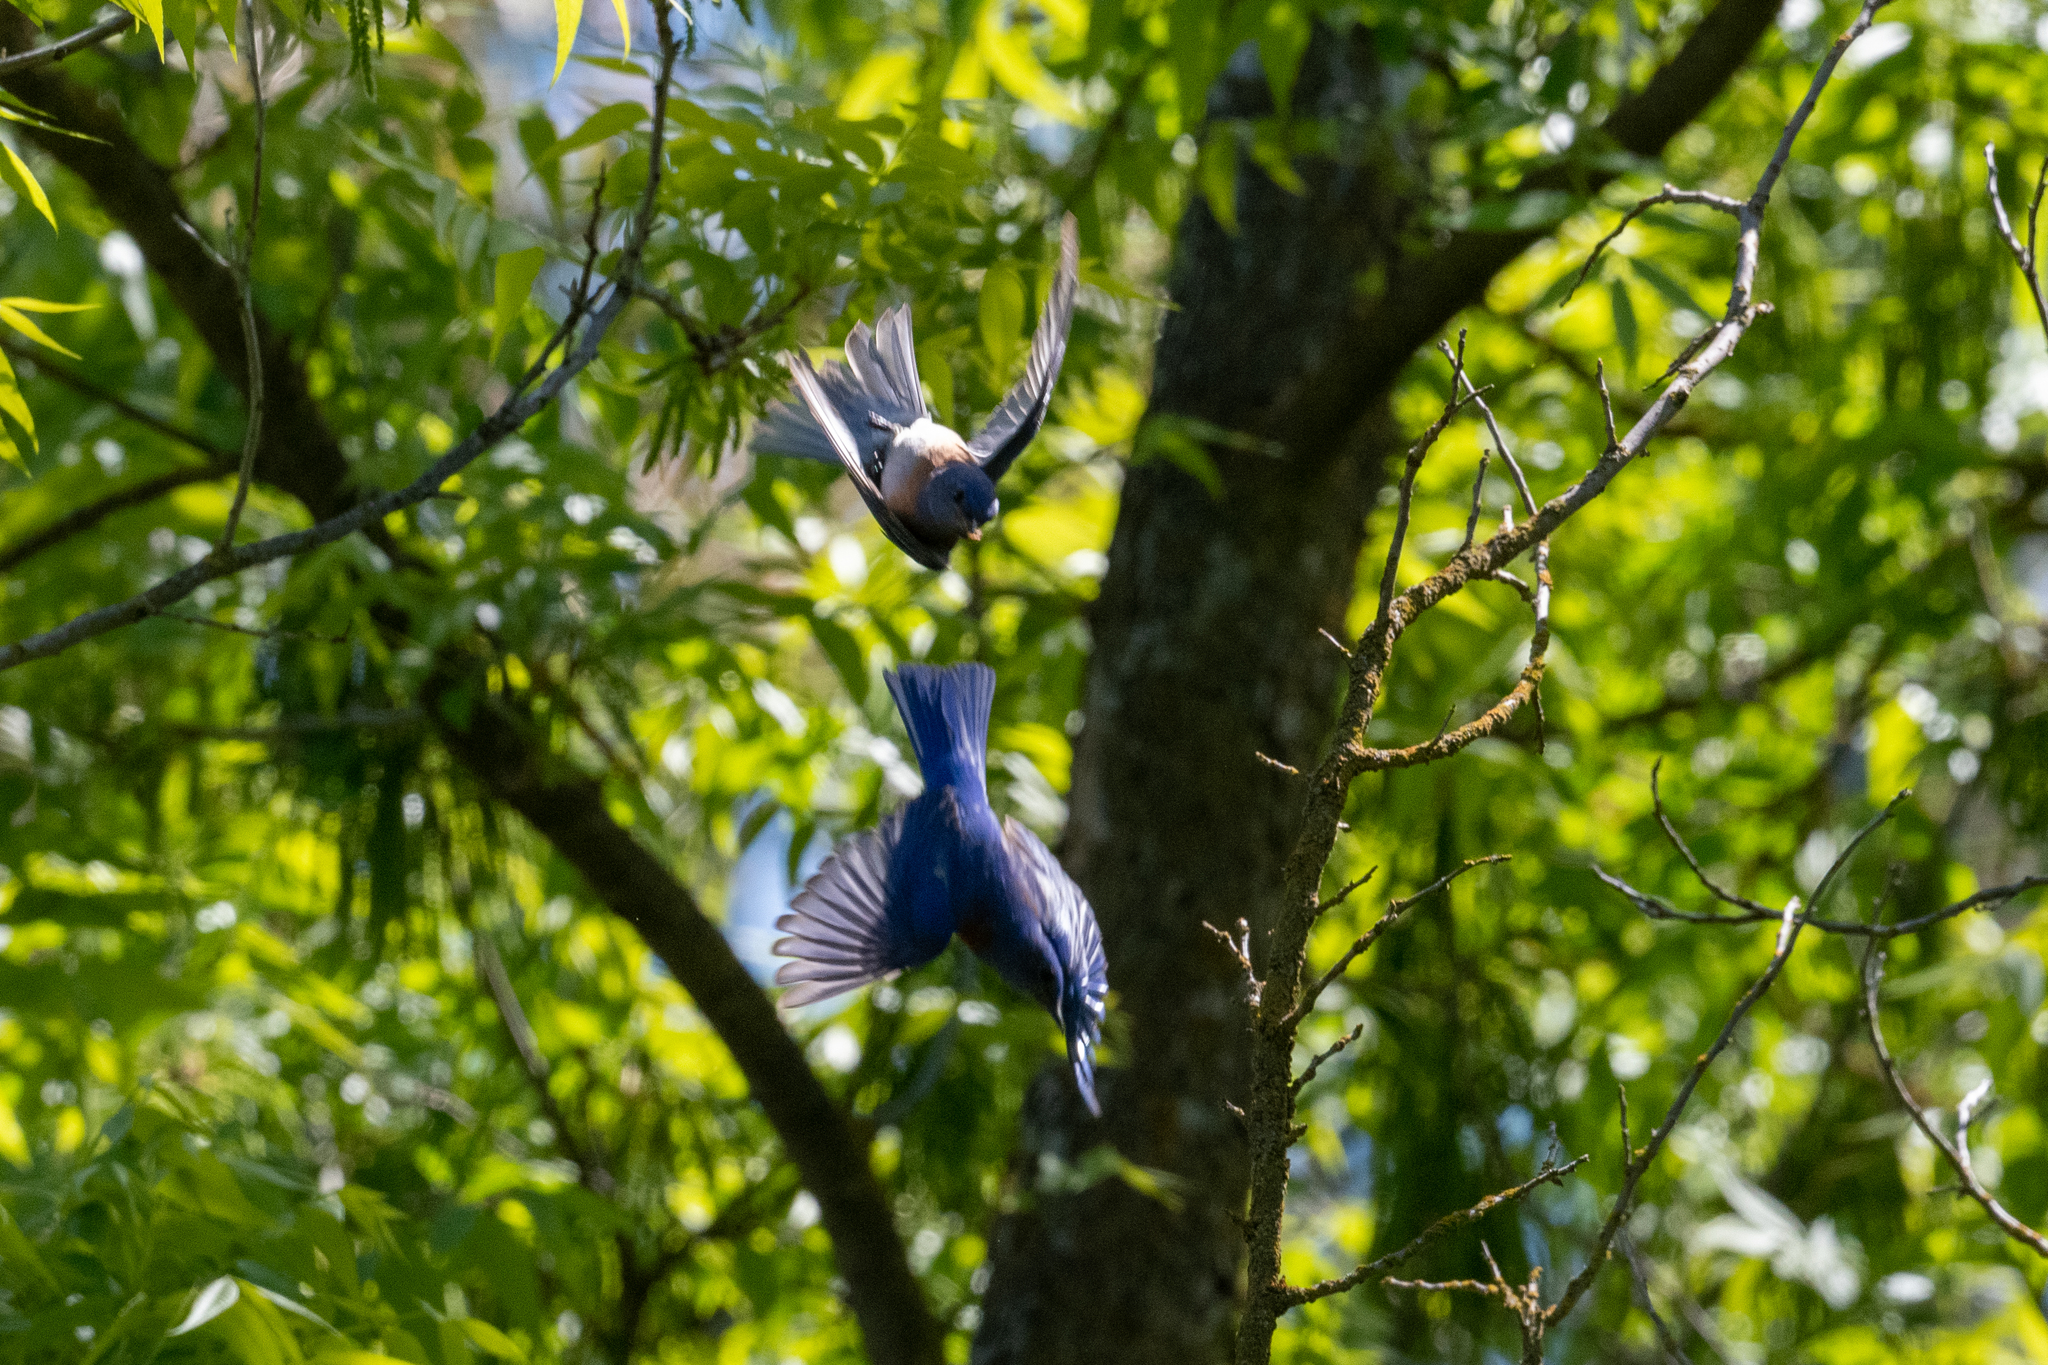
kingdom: Animalia
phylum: Chordata
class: Aves
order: Passeriformes
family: Turdidae
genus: Sialia
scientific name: Sialia mexicana
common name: Western bluebird
